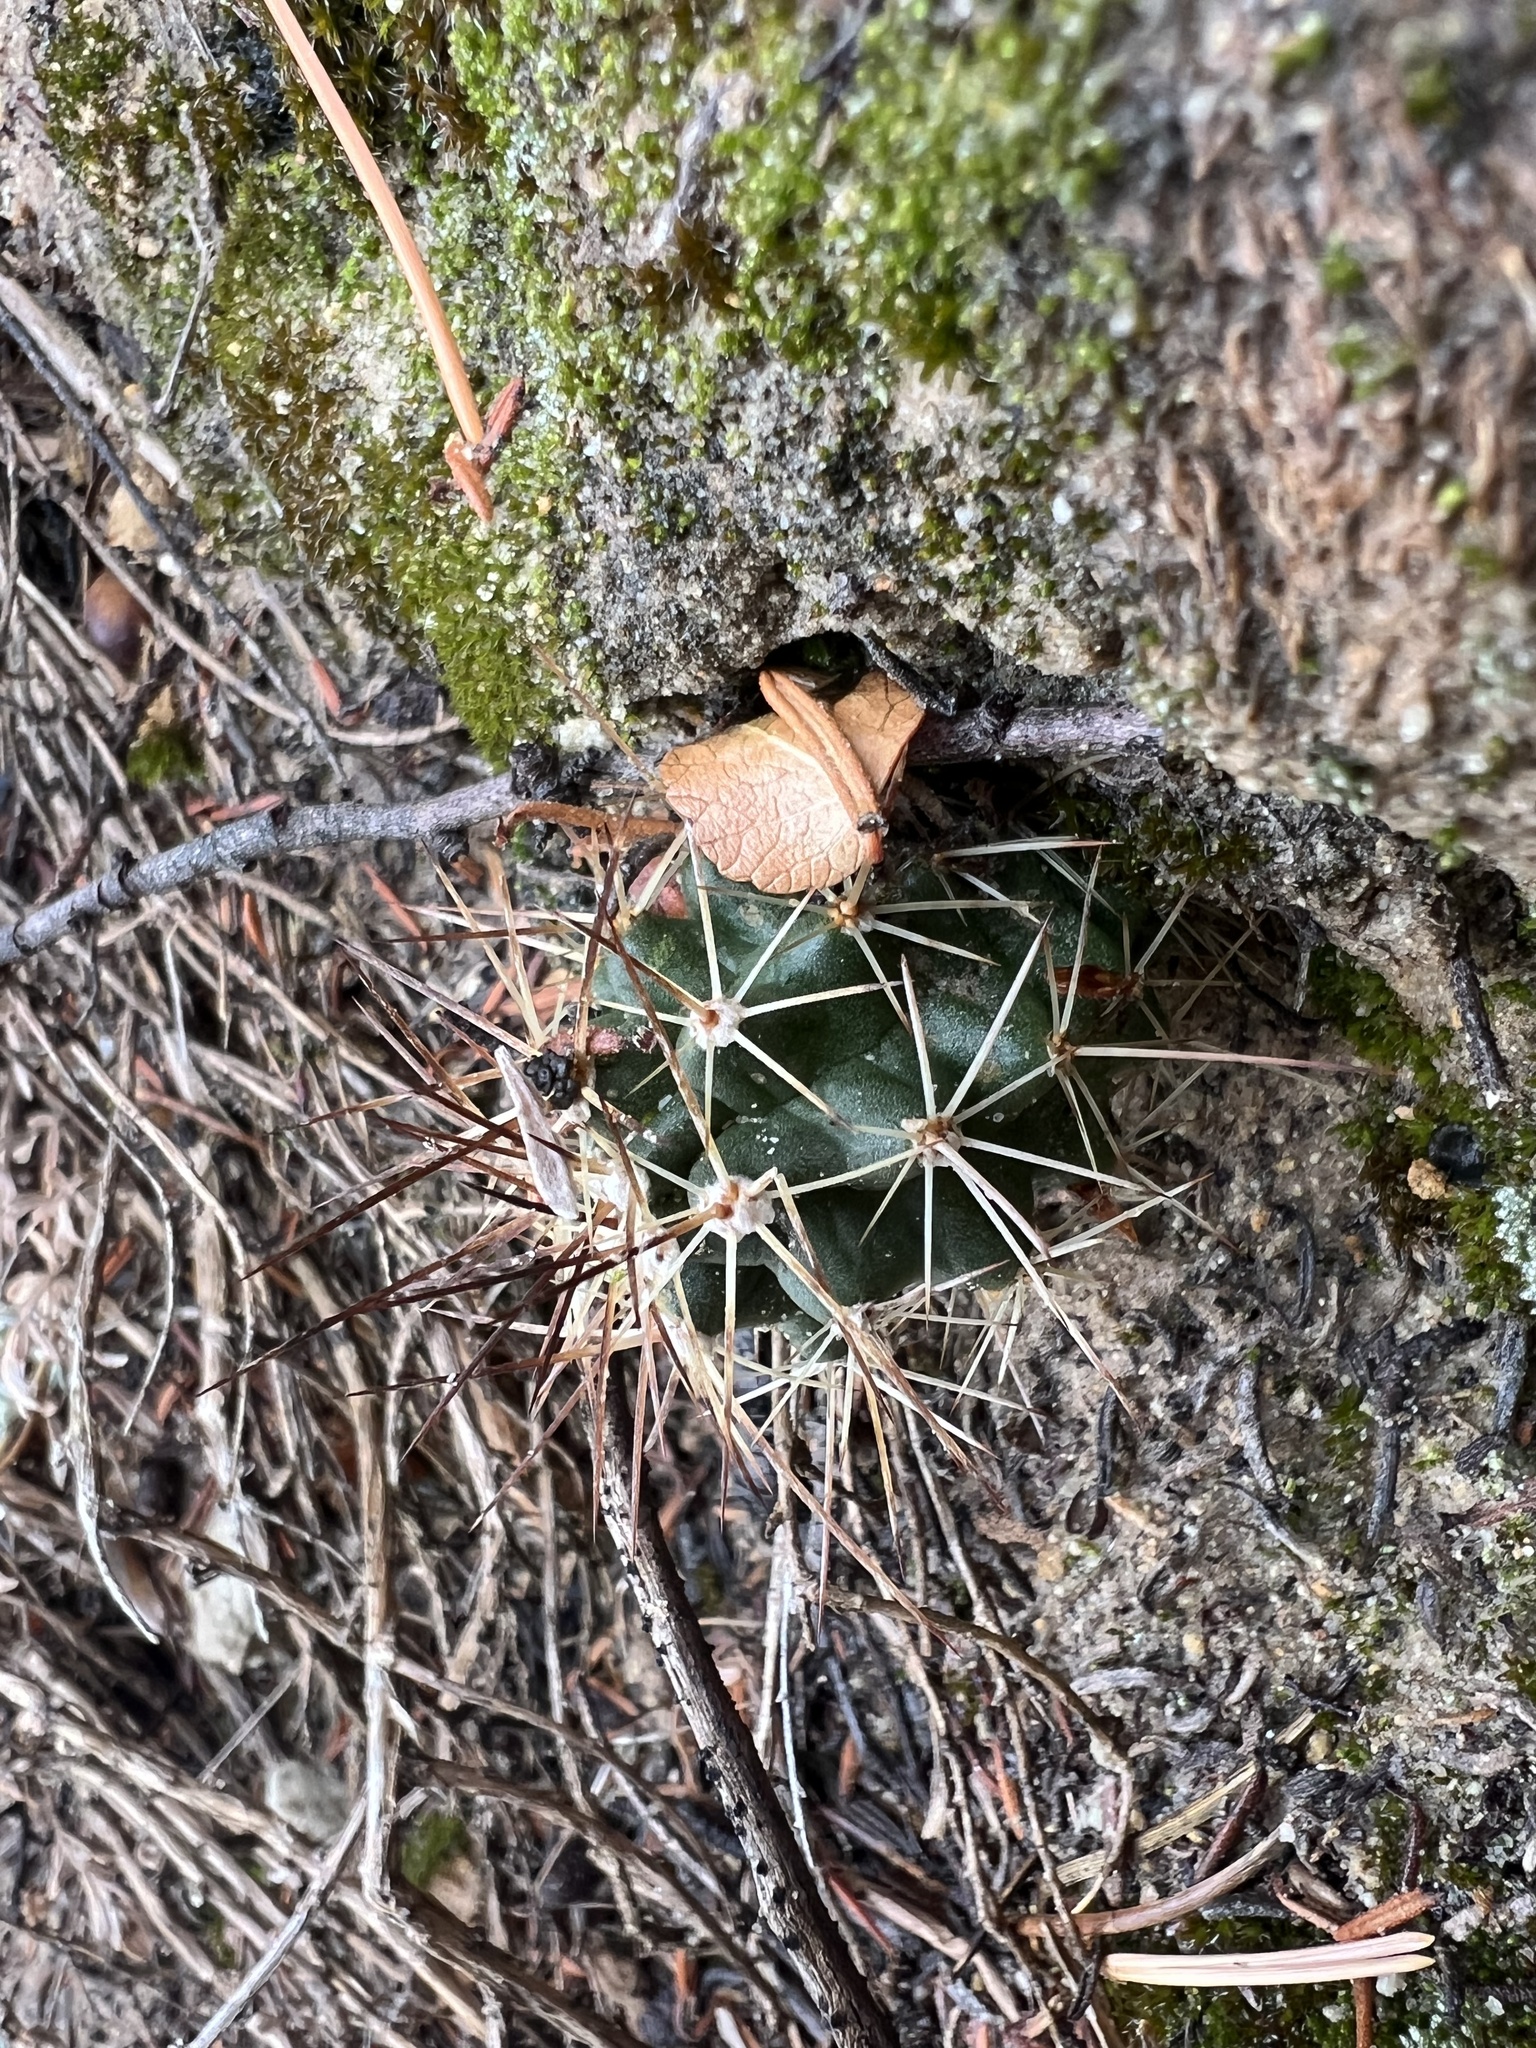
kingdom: Plantae
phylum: Tracheophyta
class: Magnoliopsida
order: Caryophyllales
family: Cactaceae
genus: Echinocereus
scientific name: Echinocereus triglochidiatus
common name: Claretcup hedgehog
